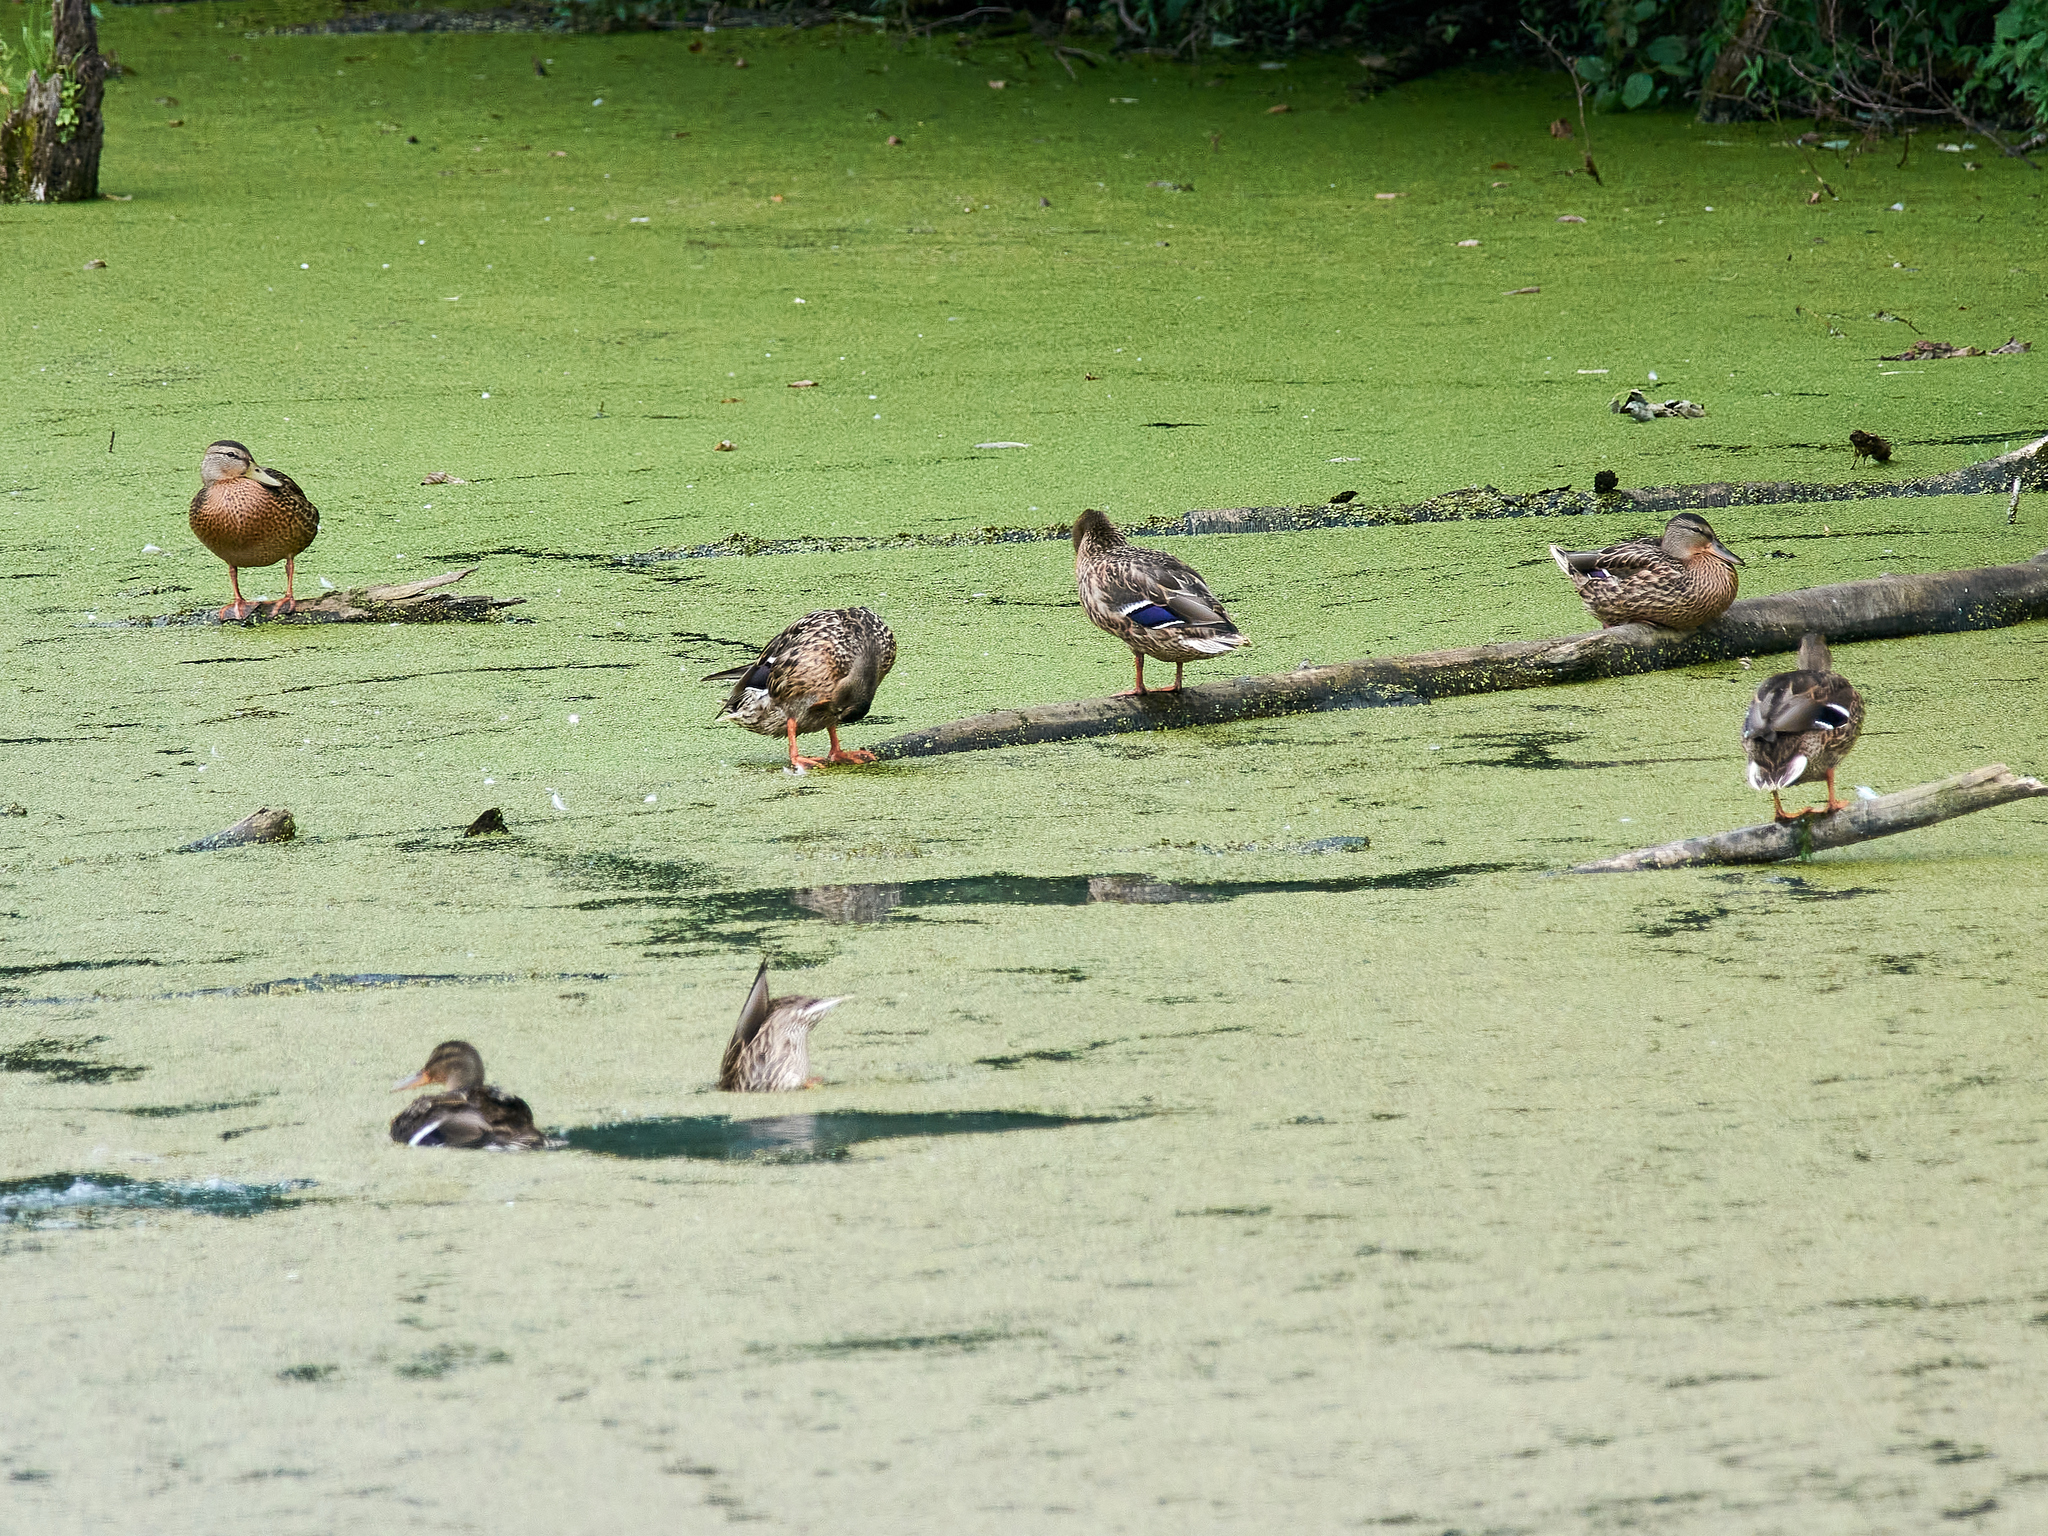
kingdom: Animalia
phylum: Chordata
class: Aves
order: Anseriformes
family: Anatidae
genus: Anas
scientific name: Anas platyrhynchos
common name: Mallard
